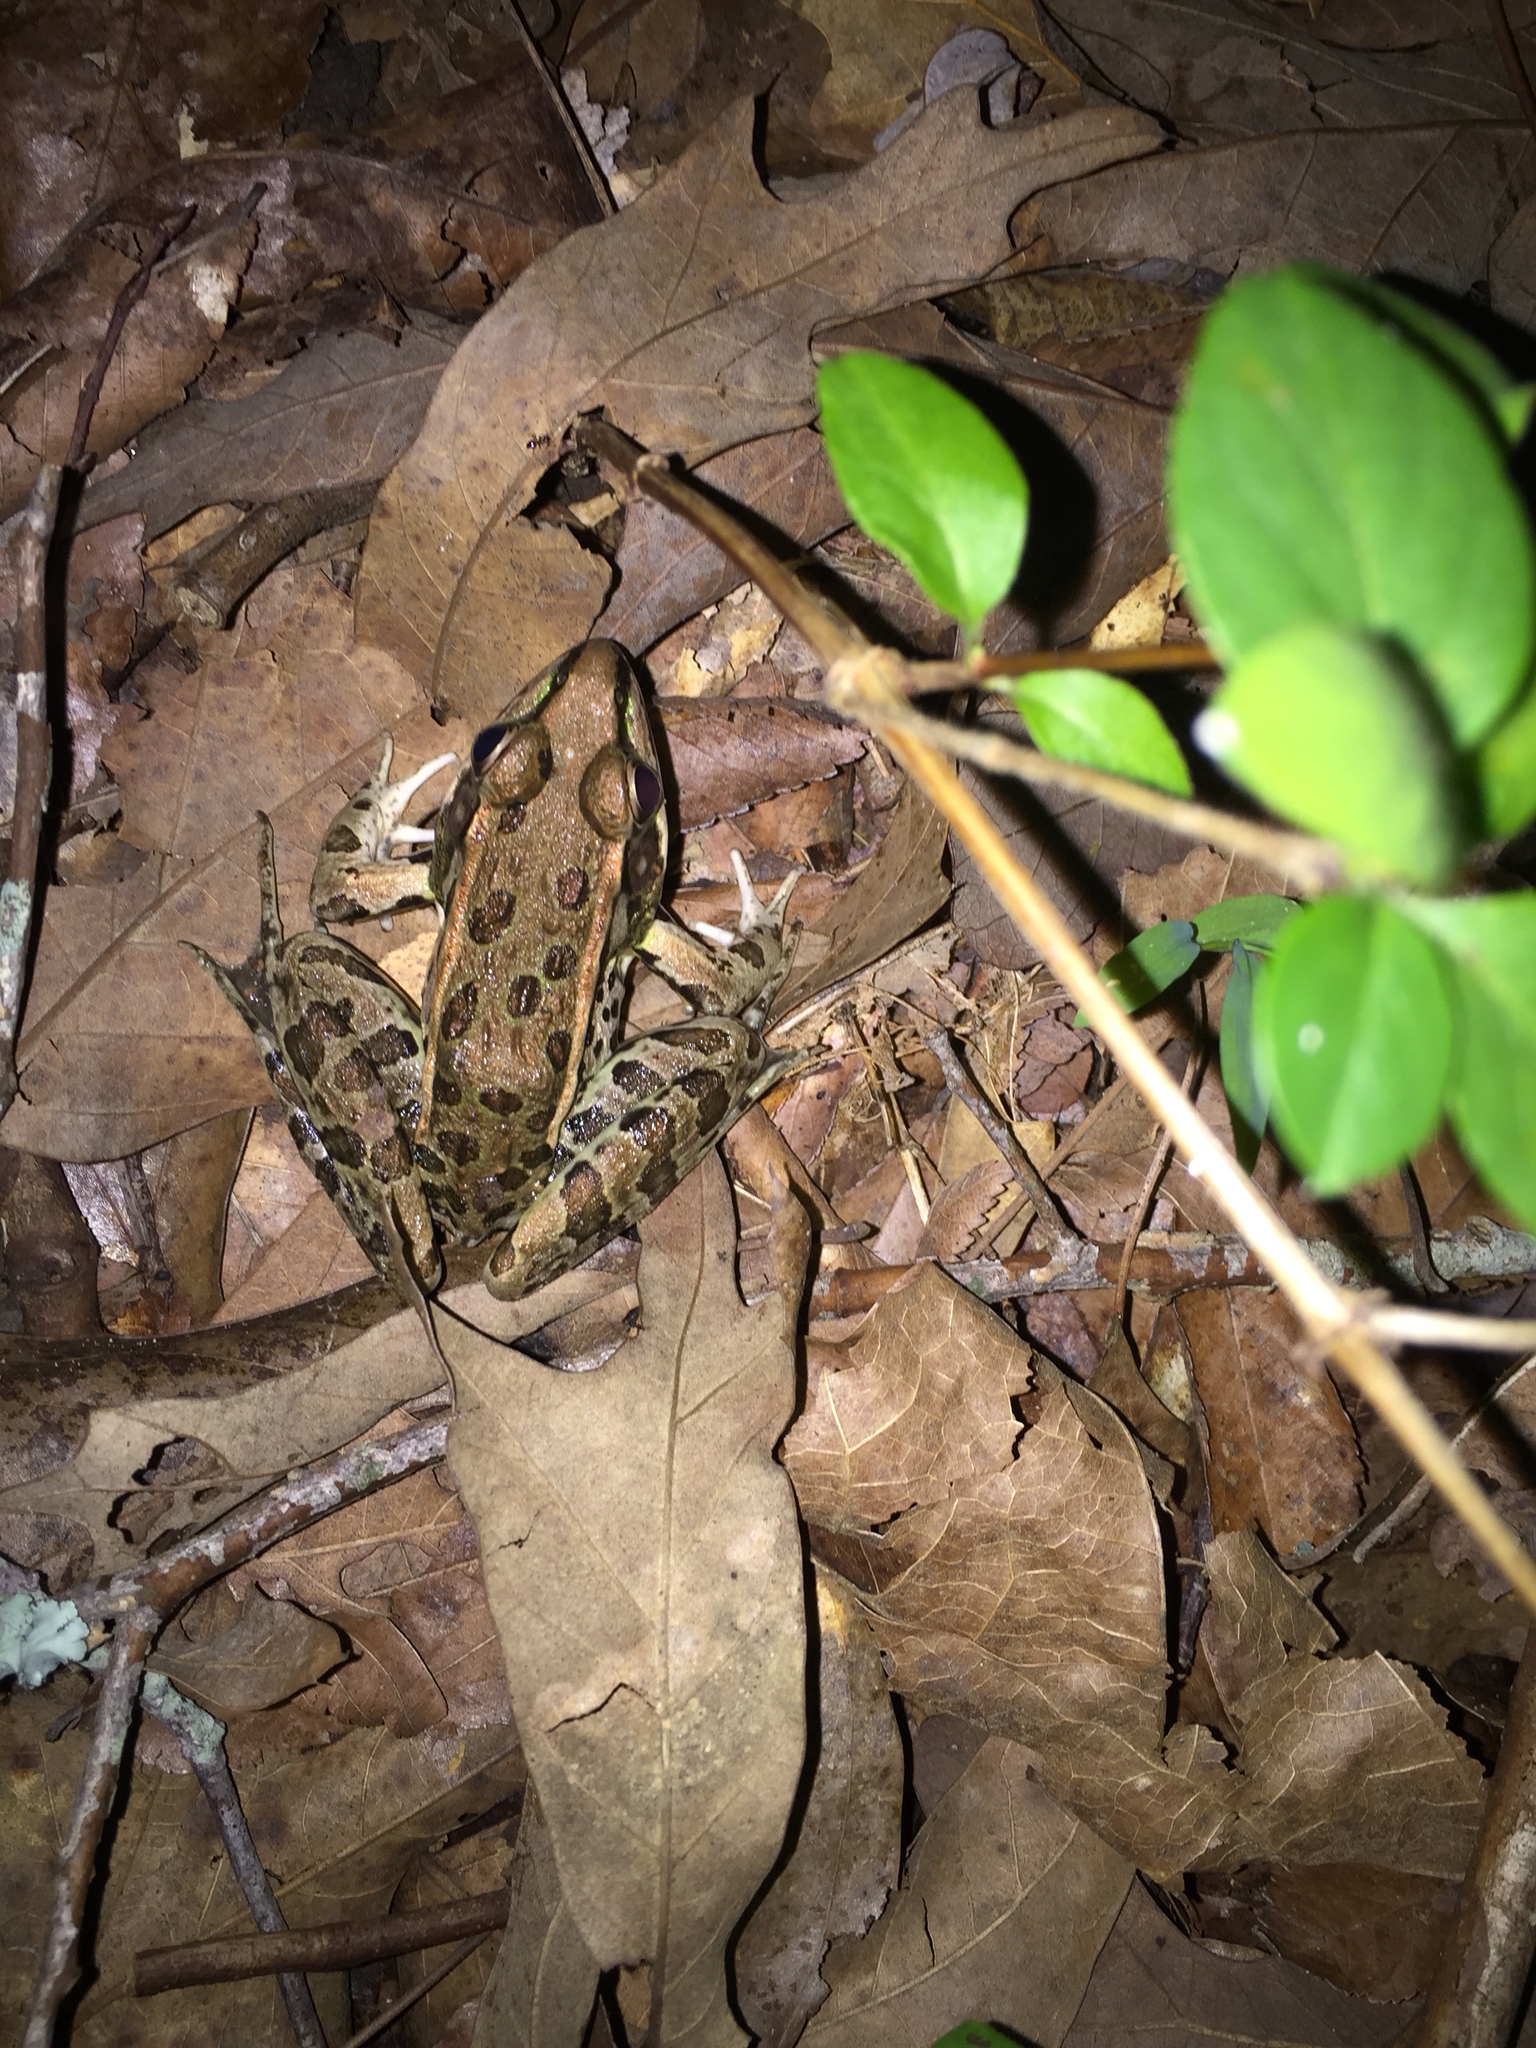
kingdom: Animalia
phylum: Chordata
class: Amphibia
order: Anura
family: Ranidae
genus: Lithobates
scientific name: Lithobates sphenocephalus
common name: Southern leopard frog
